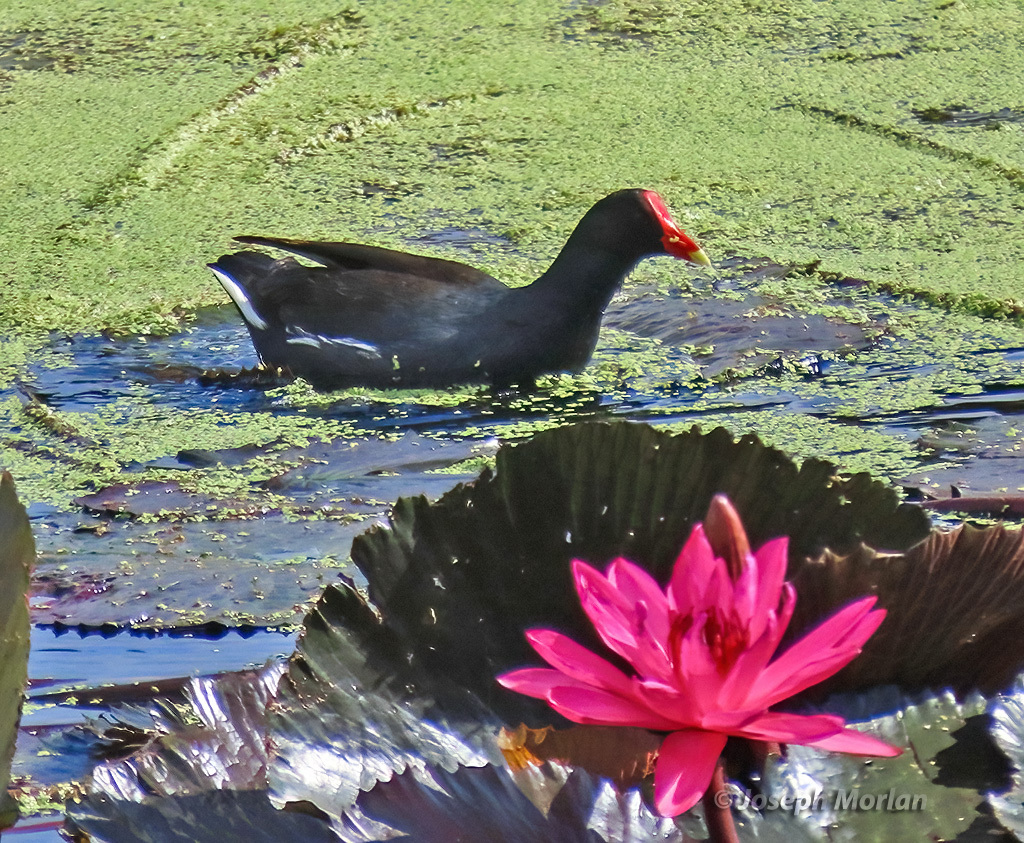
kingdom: Animalia
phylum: Chordata
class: Aves
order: Gruiformes
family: Rallidae
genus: Gallinula
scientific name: Gallinula chloropus
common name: Common moorhen
